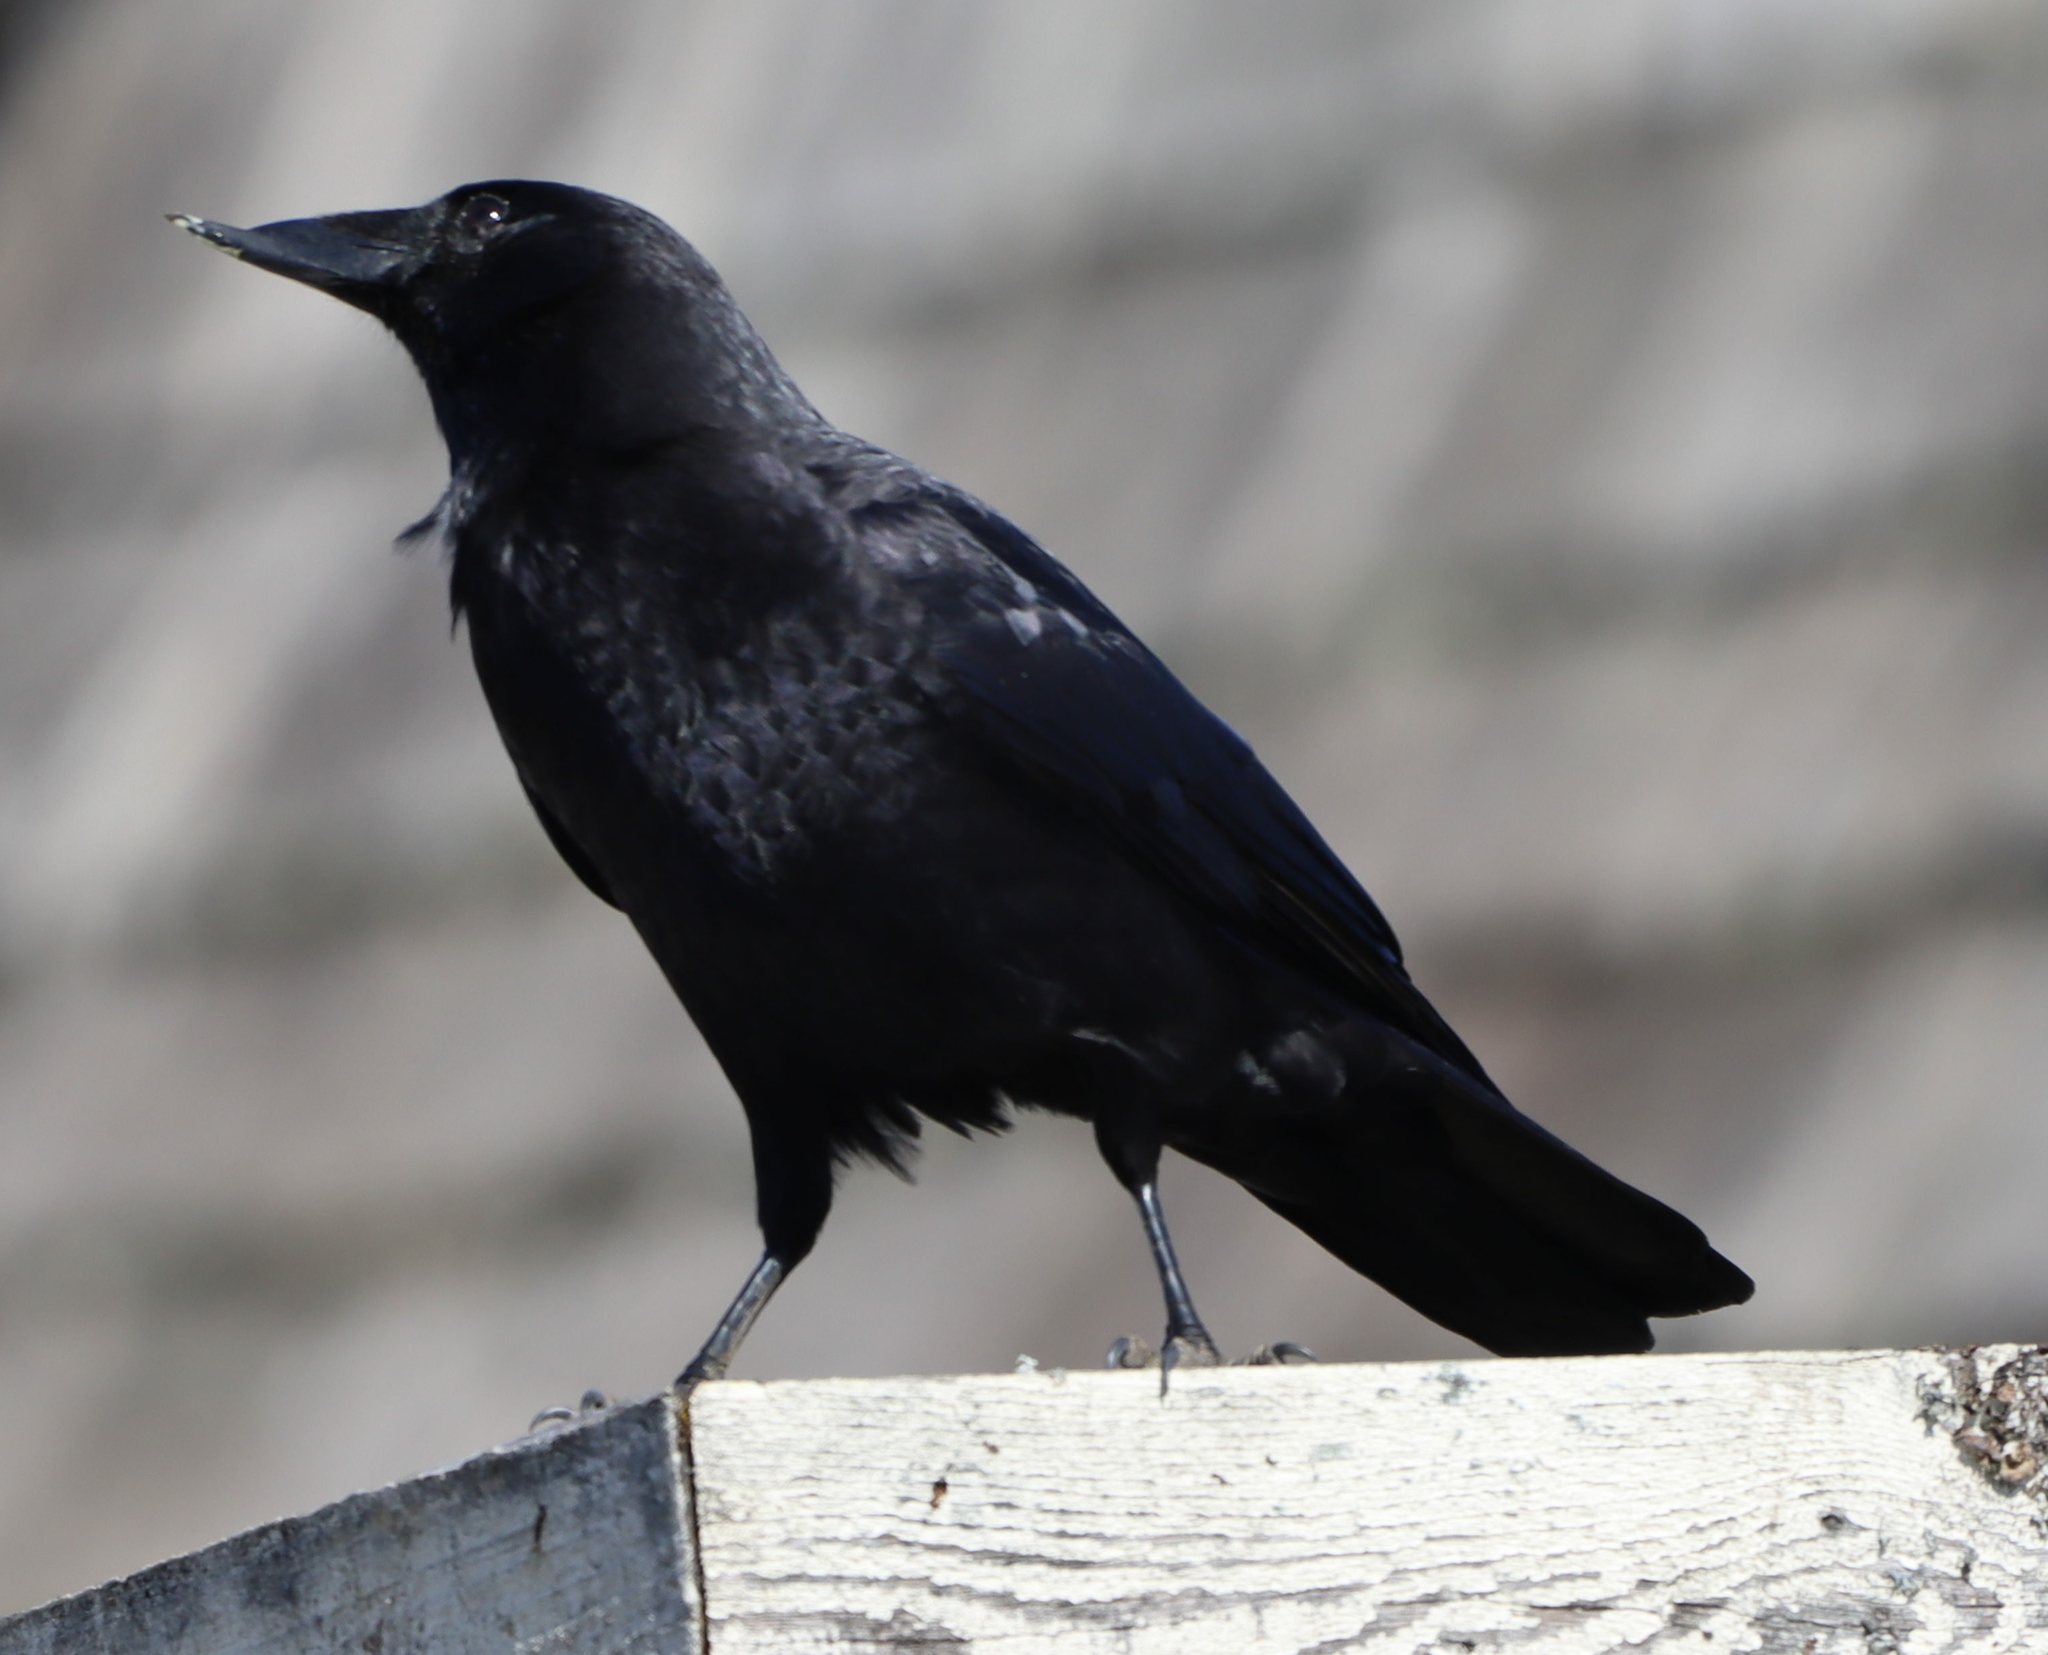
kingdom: Animalia
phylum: Chordata
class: Aves
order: Passeriformes
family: Corvidae
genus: Corvus
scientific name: Corvus brachyrhynchos
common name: American crow
